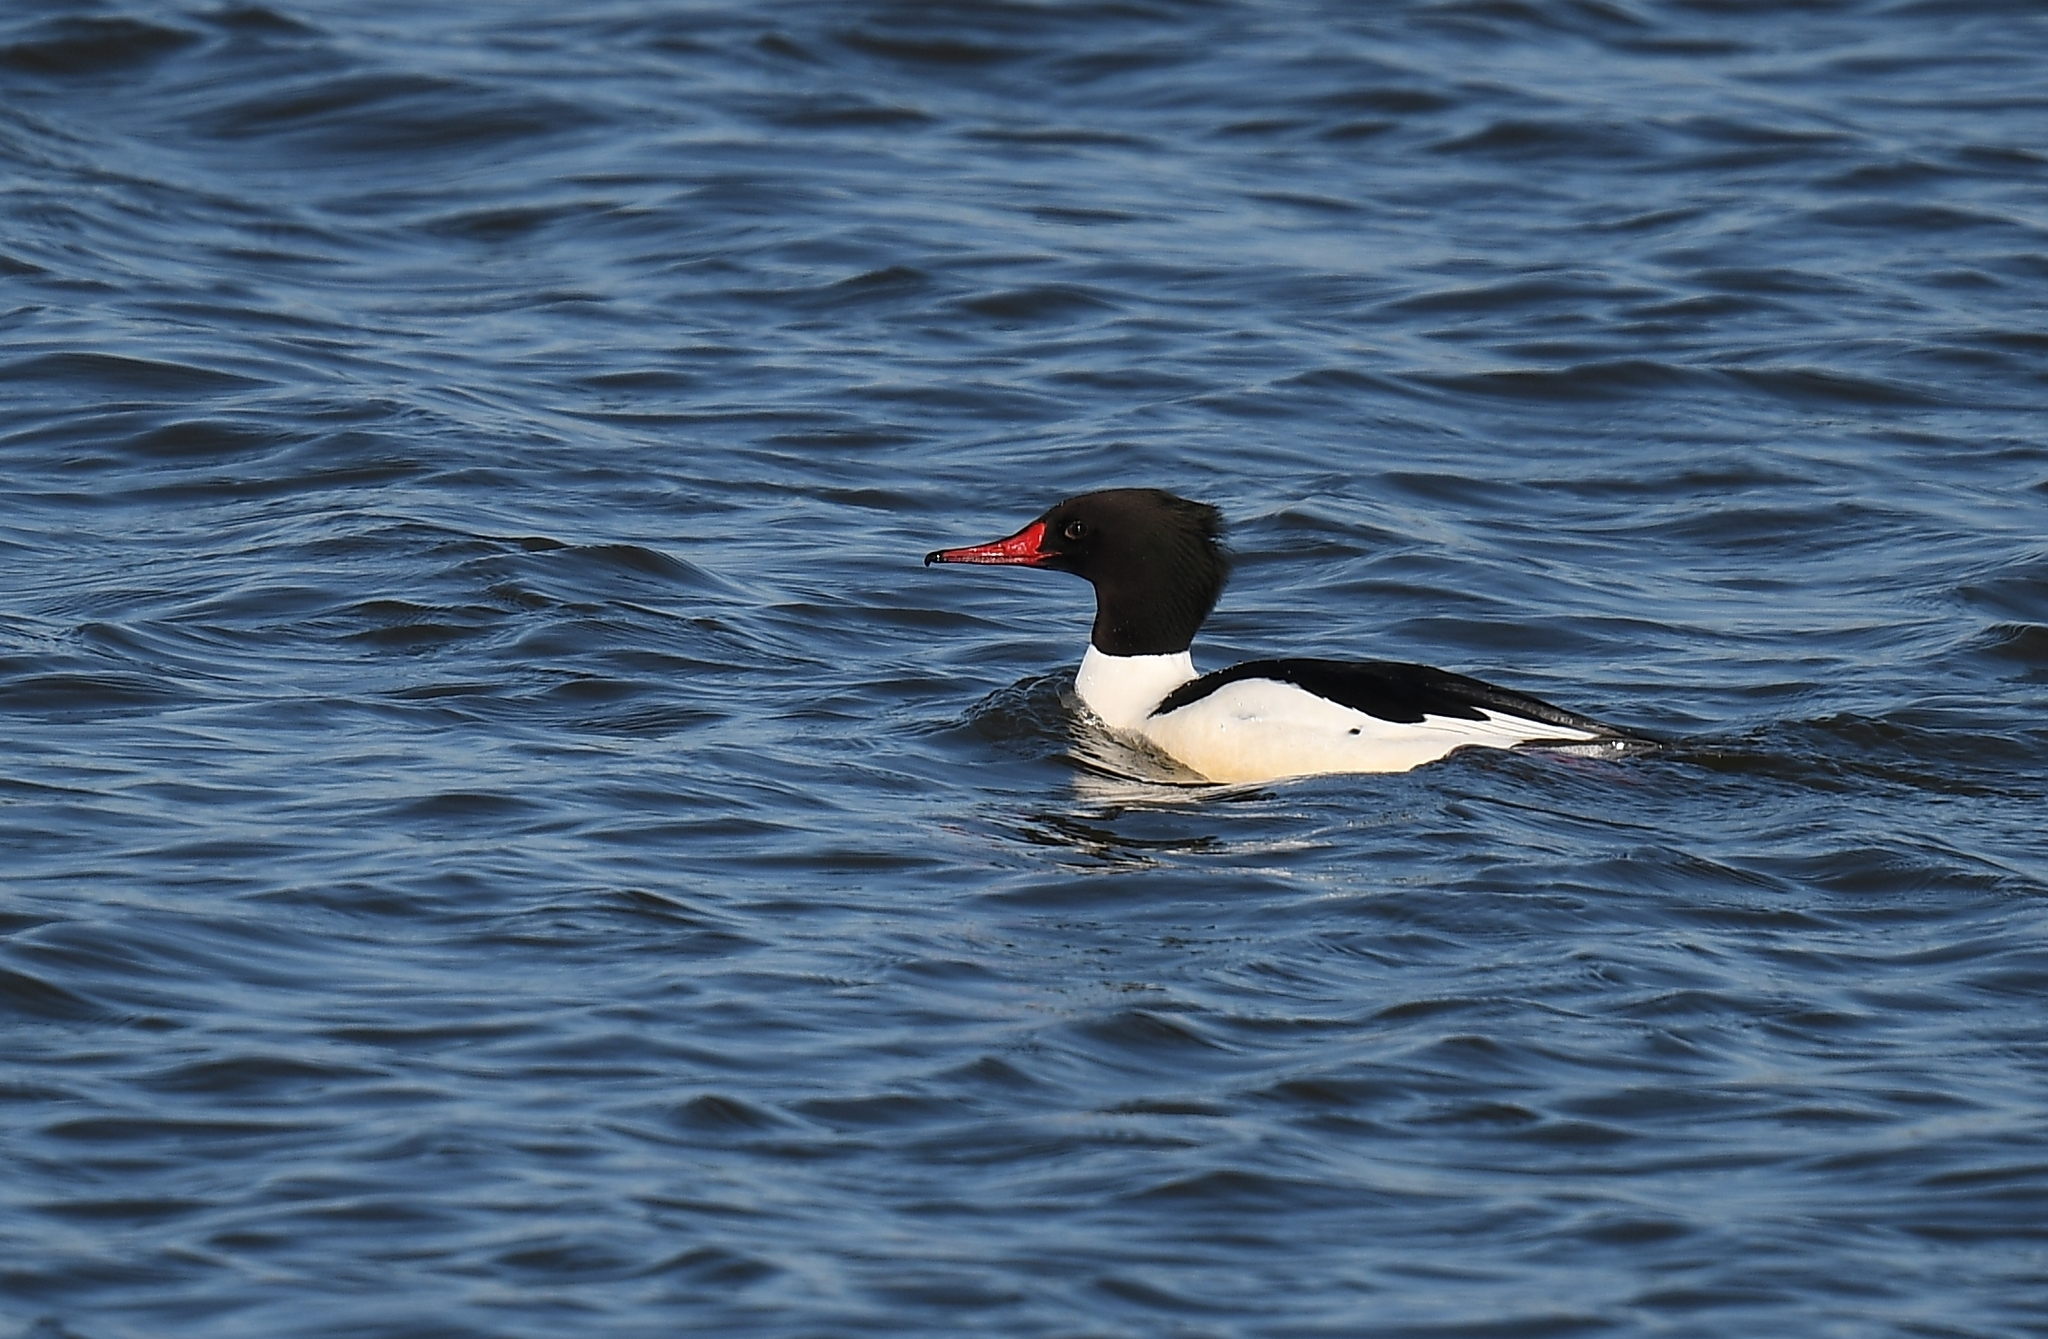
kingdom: Animalia
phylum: Chordata
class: Aves
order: Anseriformes
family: Anatidae
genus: Mergus
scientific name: Mergus merganser
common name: Common merganser
